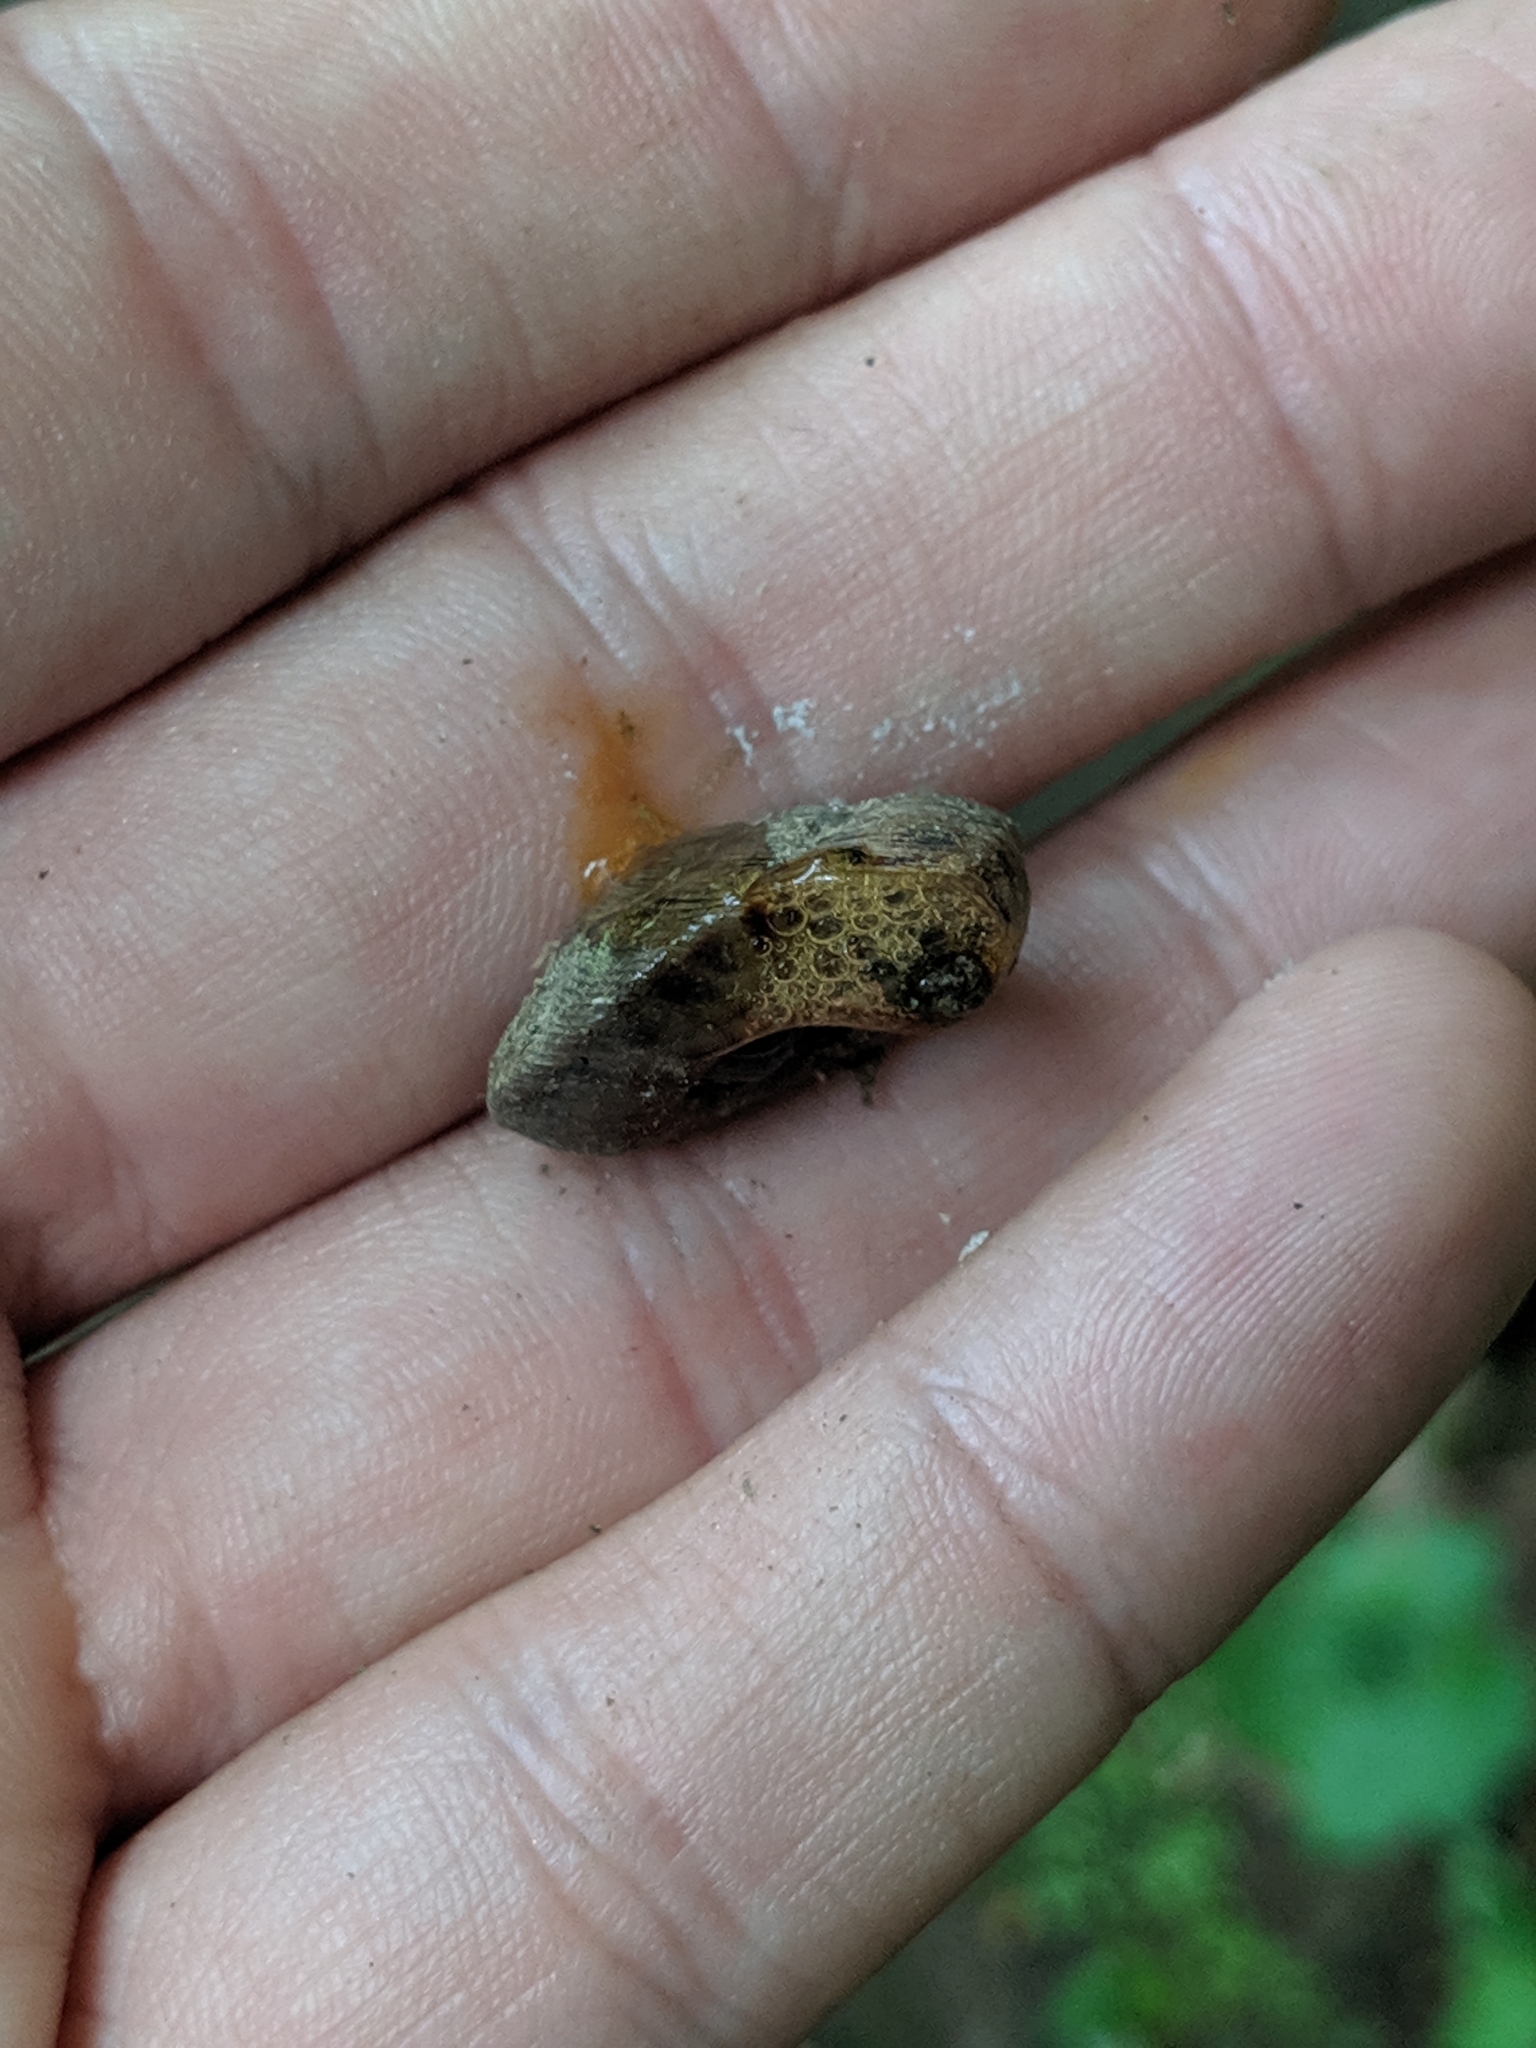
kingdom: Animalia
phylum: Mollusca
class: Gastropoda
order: Stylommatophora
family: Discidae
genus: Anguispira
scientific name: Anguispira alternata
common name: Flamed tigersnail
